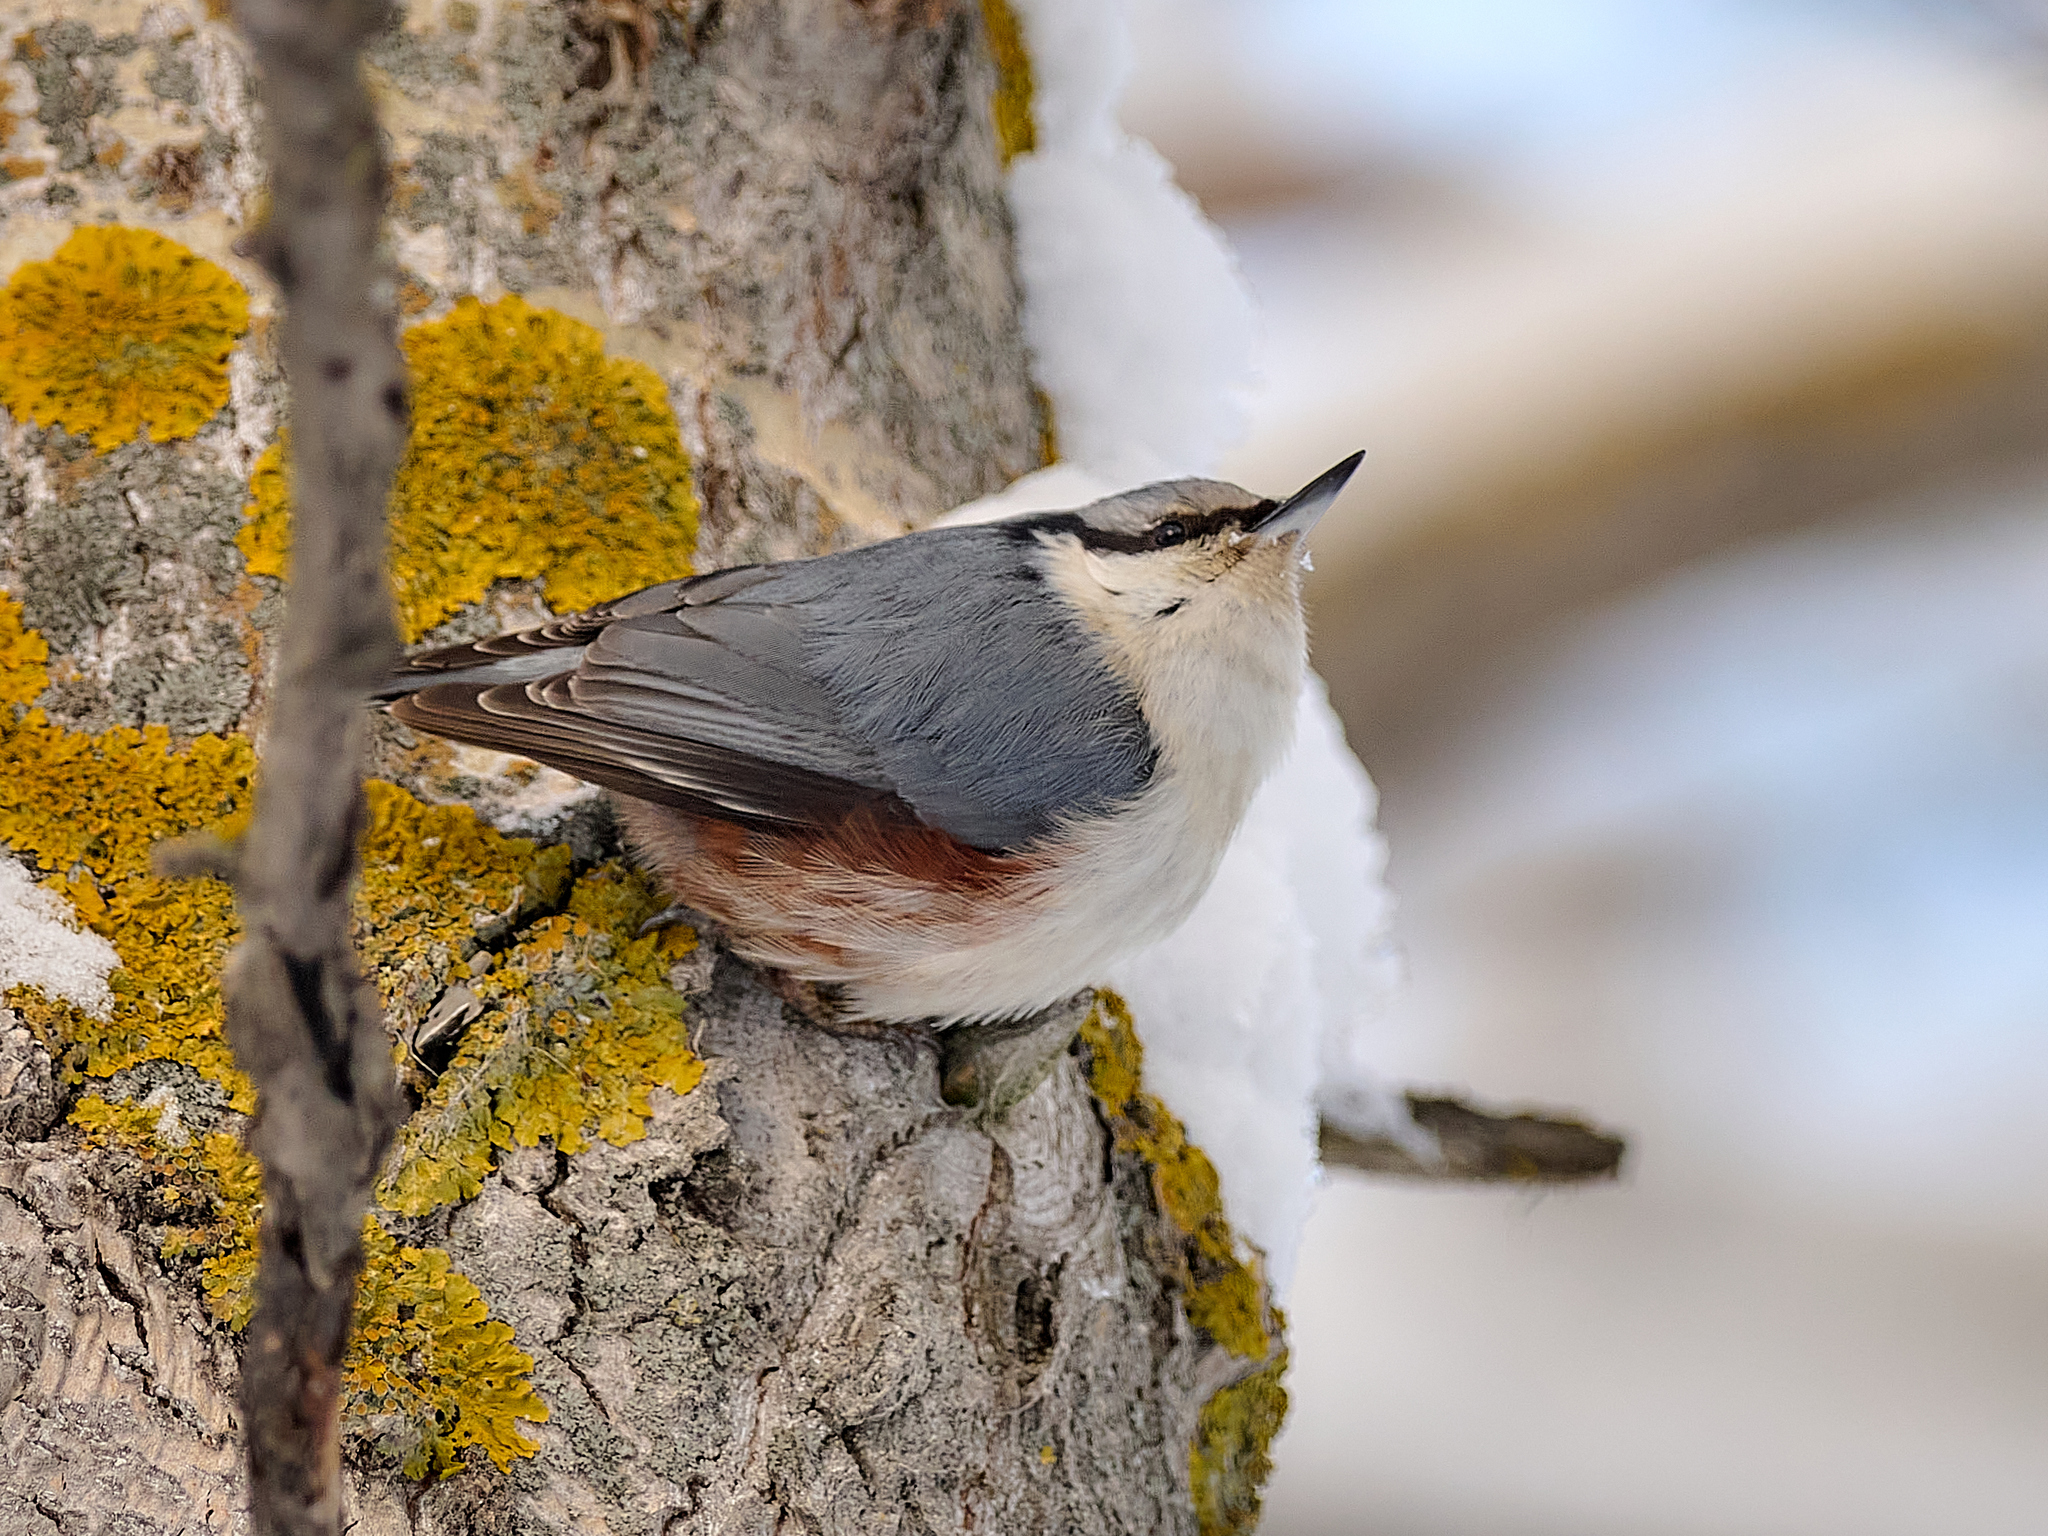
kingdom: Animalia
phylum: Chordata
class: Aves
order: Passeriformes
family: Sittidae
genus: Sitta
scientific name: Sitta europaea
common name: Eurasian nuthatch
